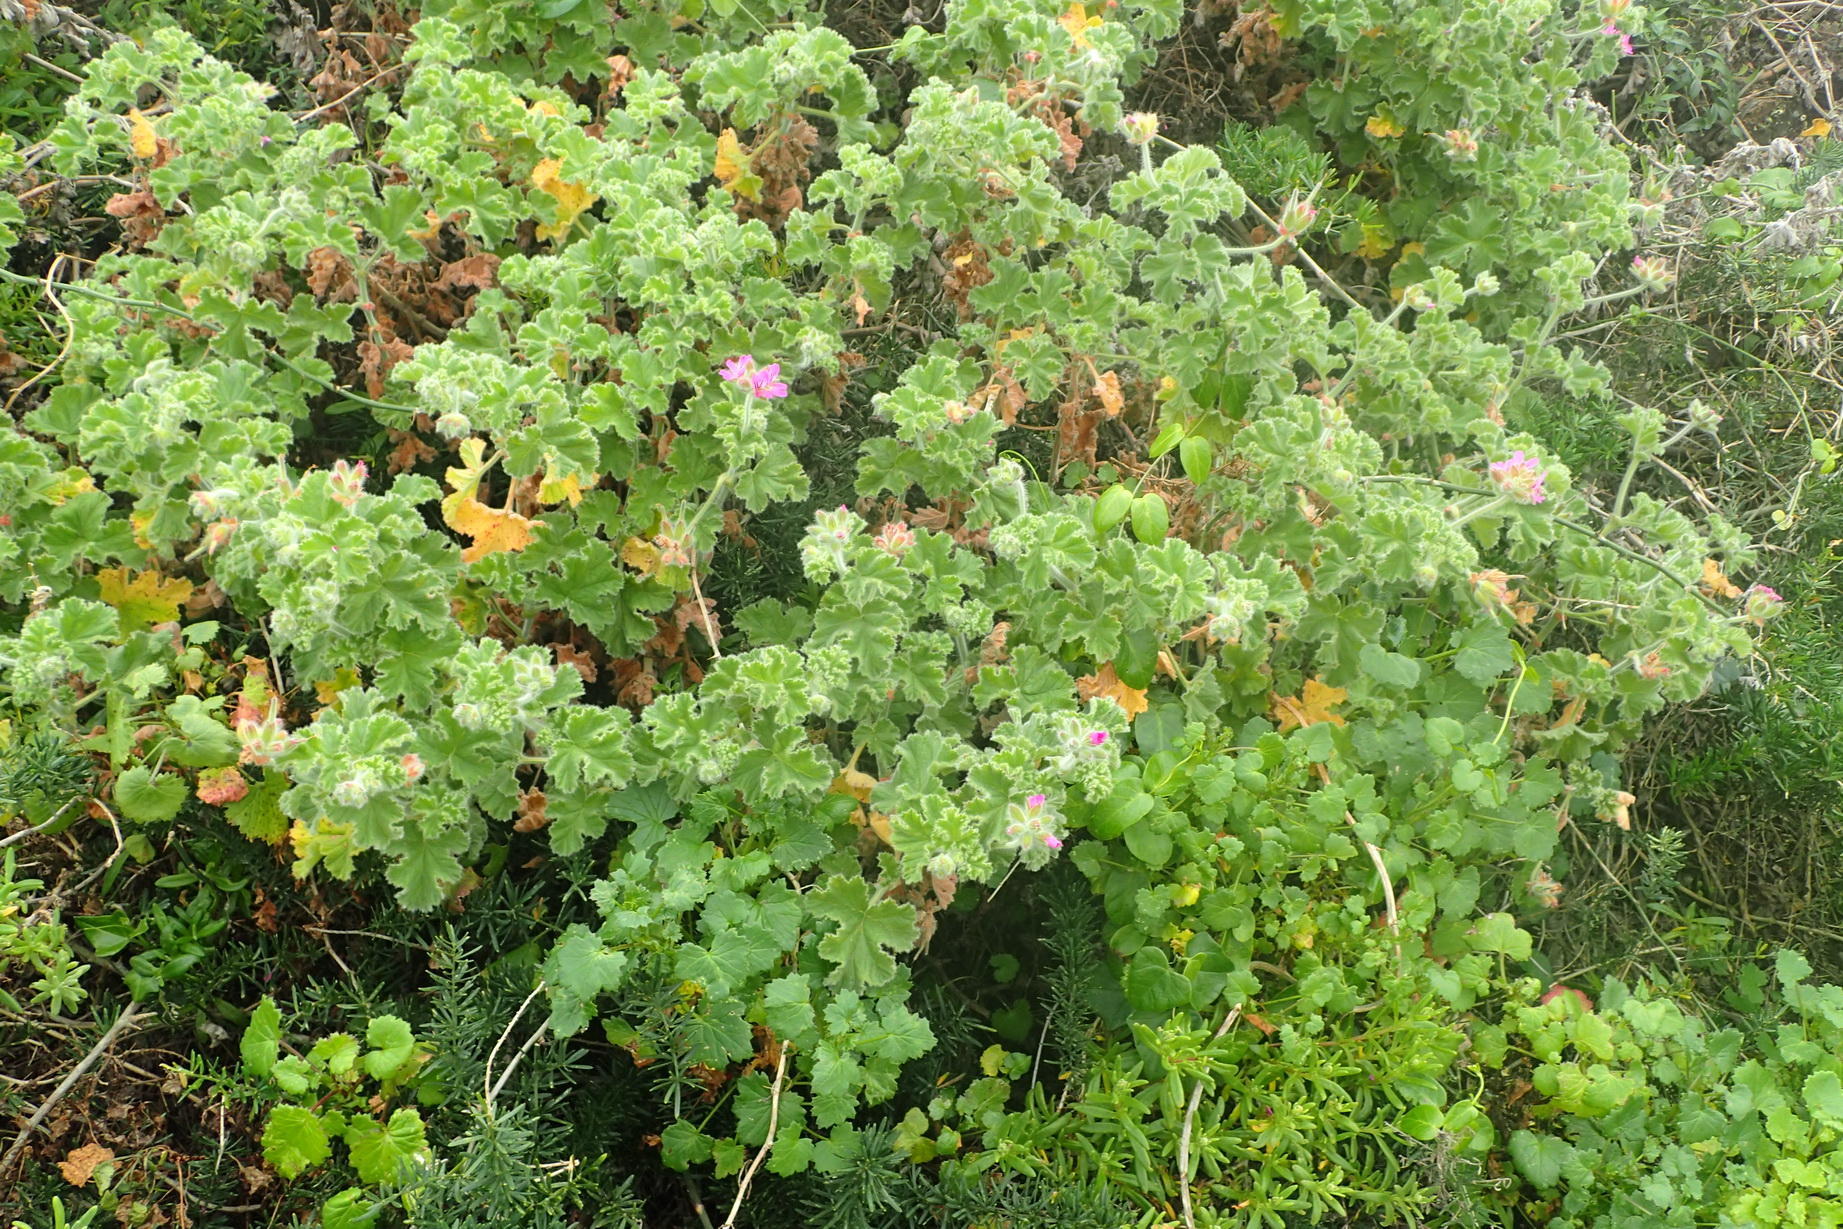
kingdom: Plantae
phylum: Tracheophyta
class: Magnoliopsida
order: Geraniales
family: Geraniaceae
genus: Pelargonium
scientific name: Pelargonium capitatum
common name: Rose scented geranium
